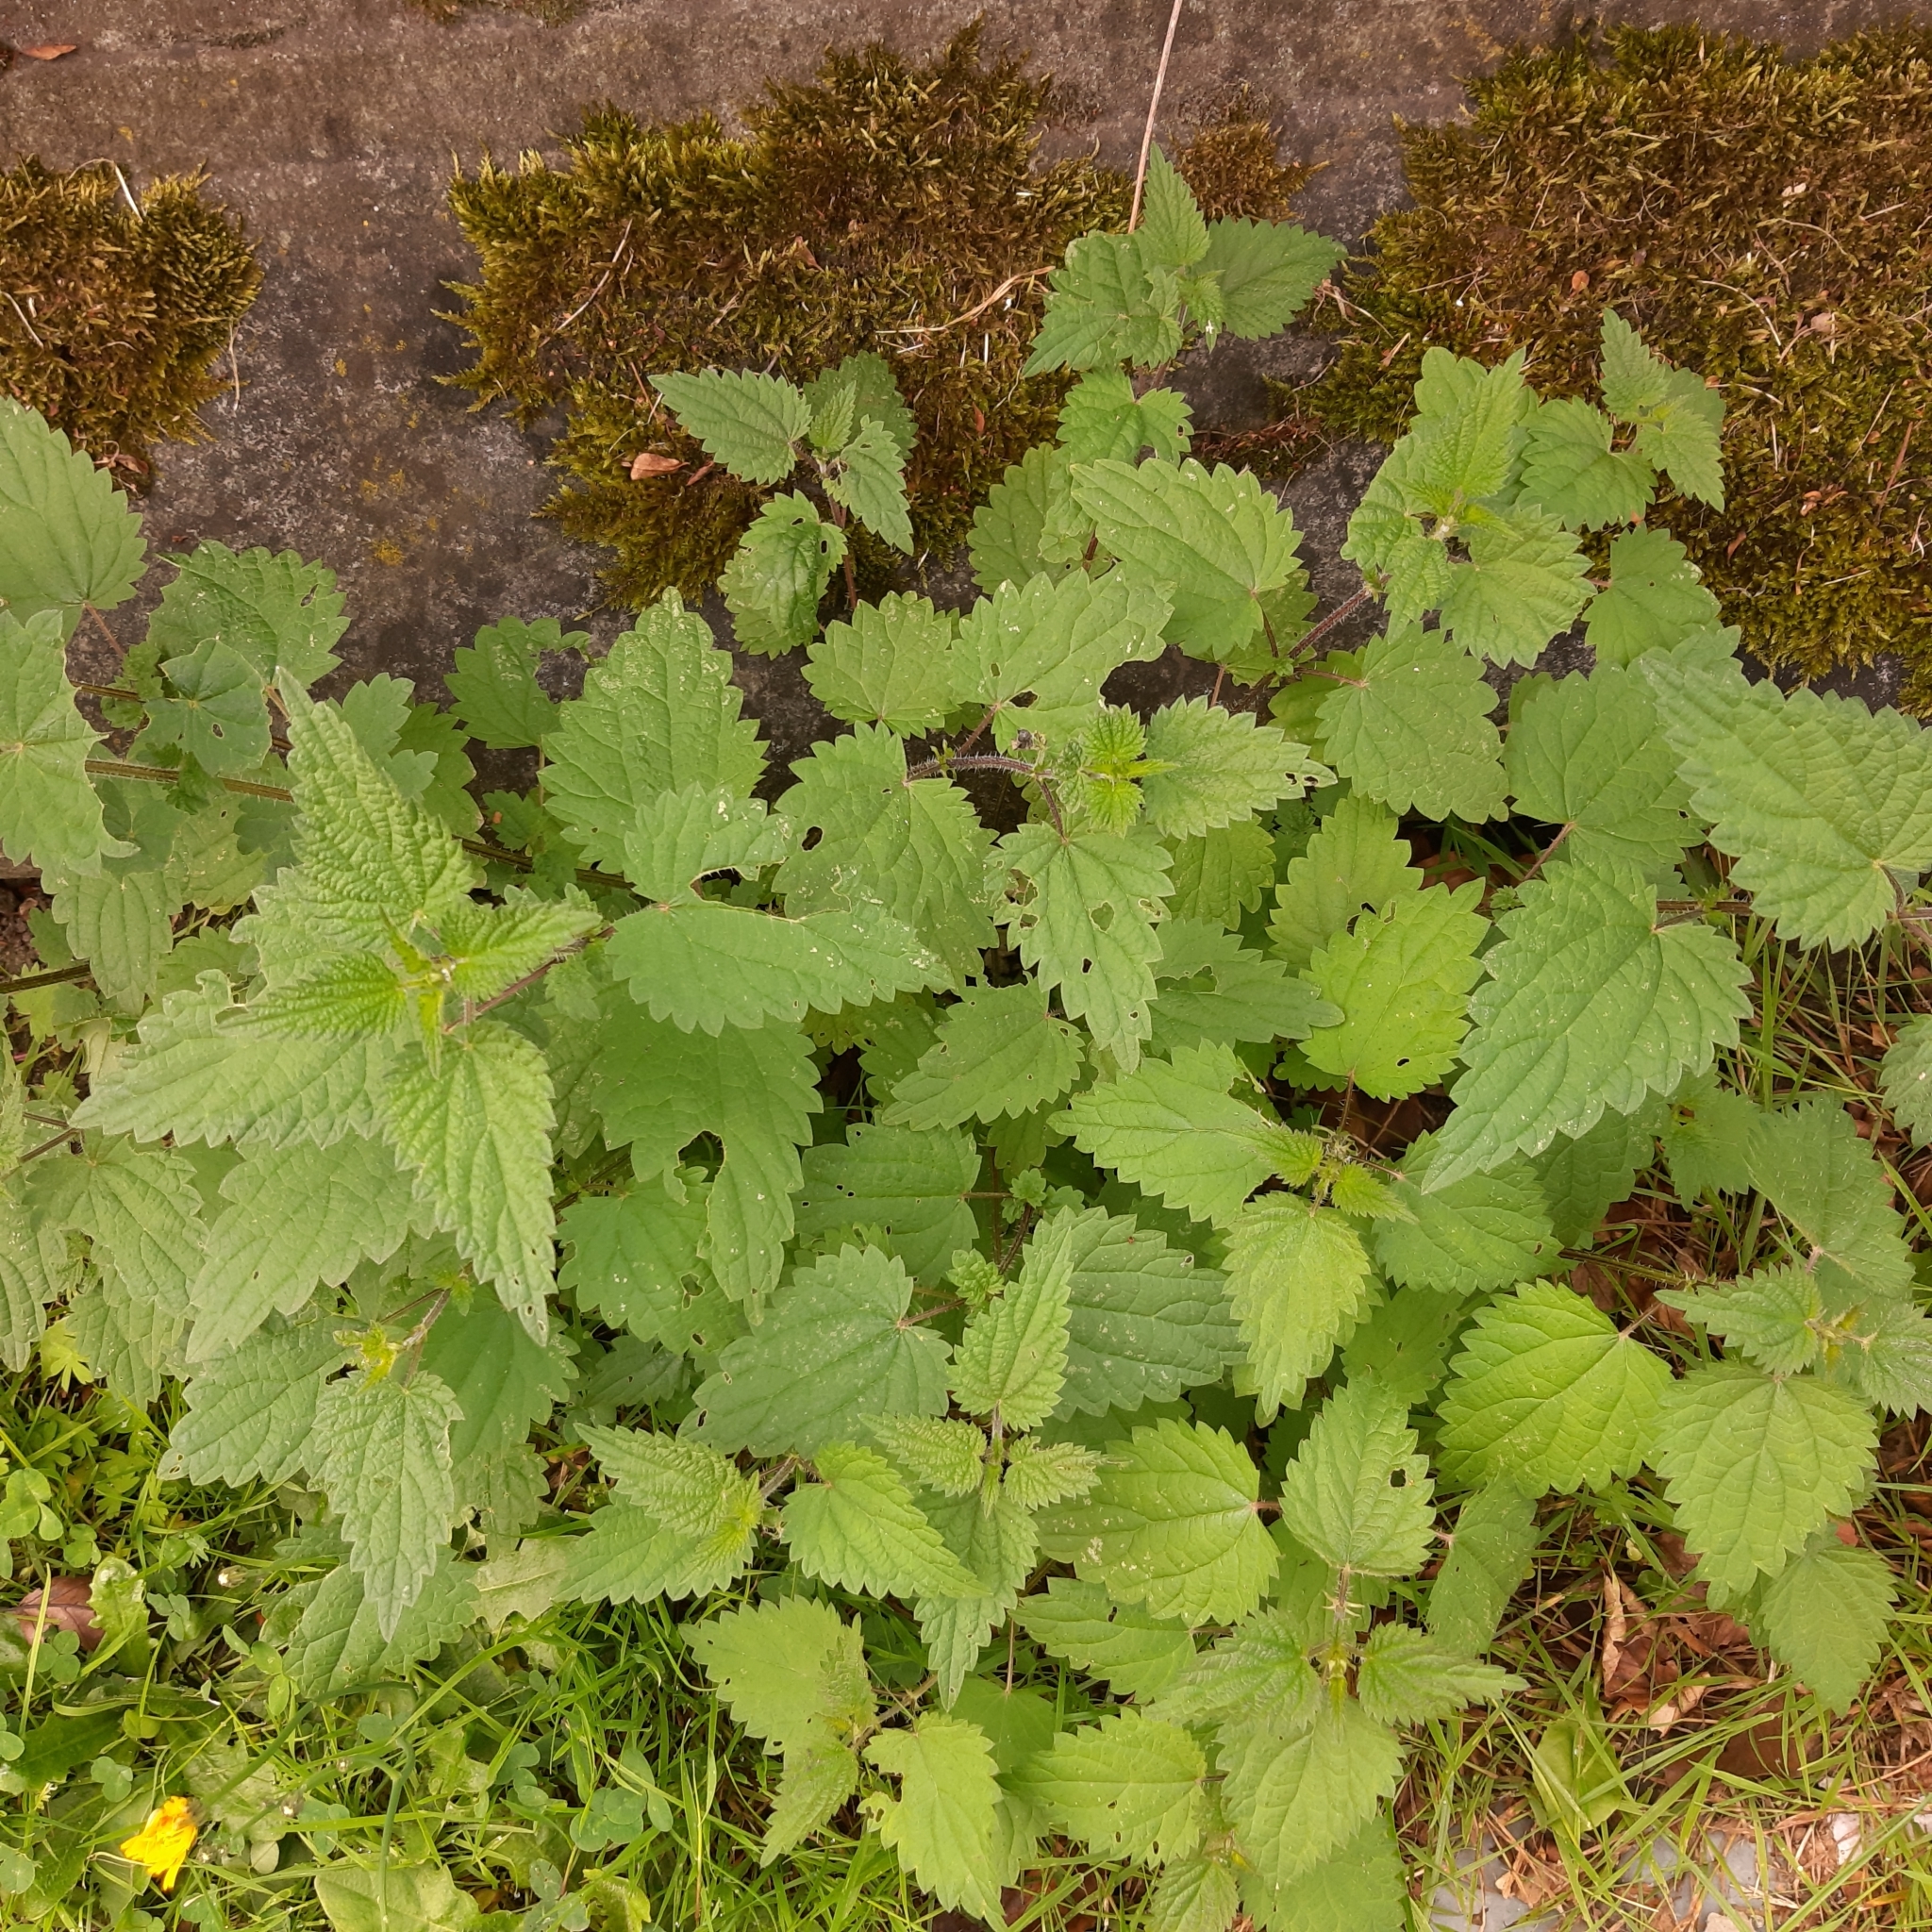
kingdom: Plantae
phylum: Tracheophyta
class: Magnoliopsida
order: Rosales
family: Urticaceae
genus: Urtica
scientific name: Urtica dioica
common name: Common nettle
